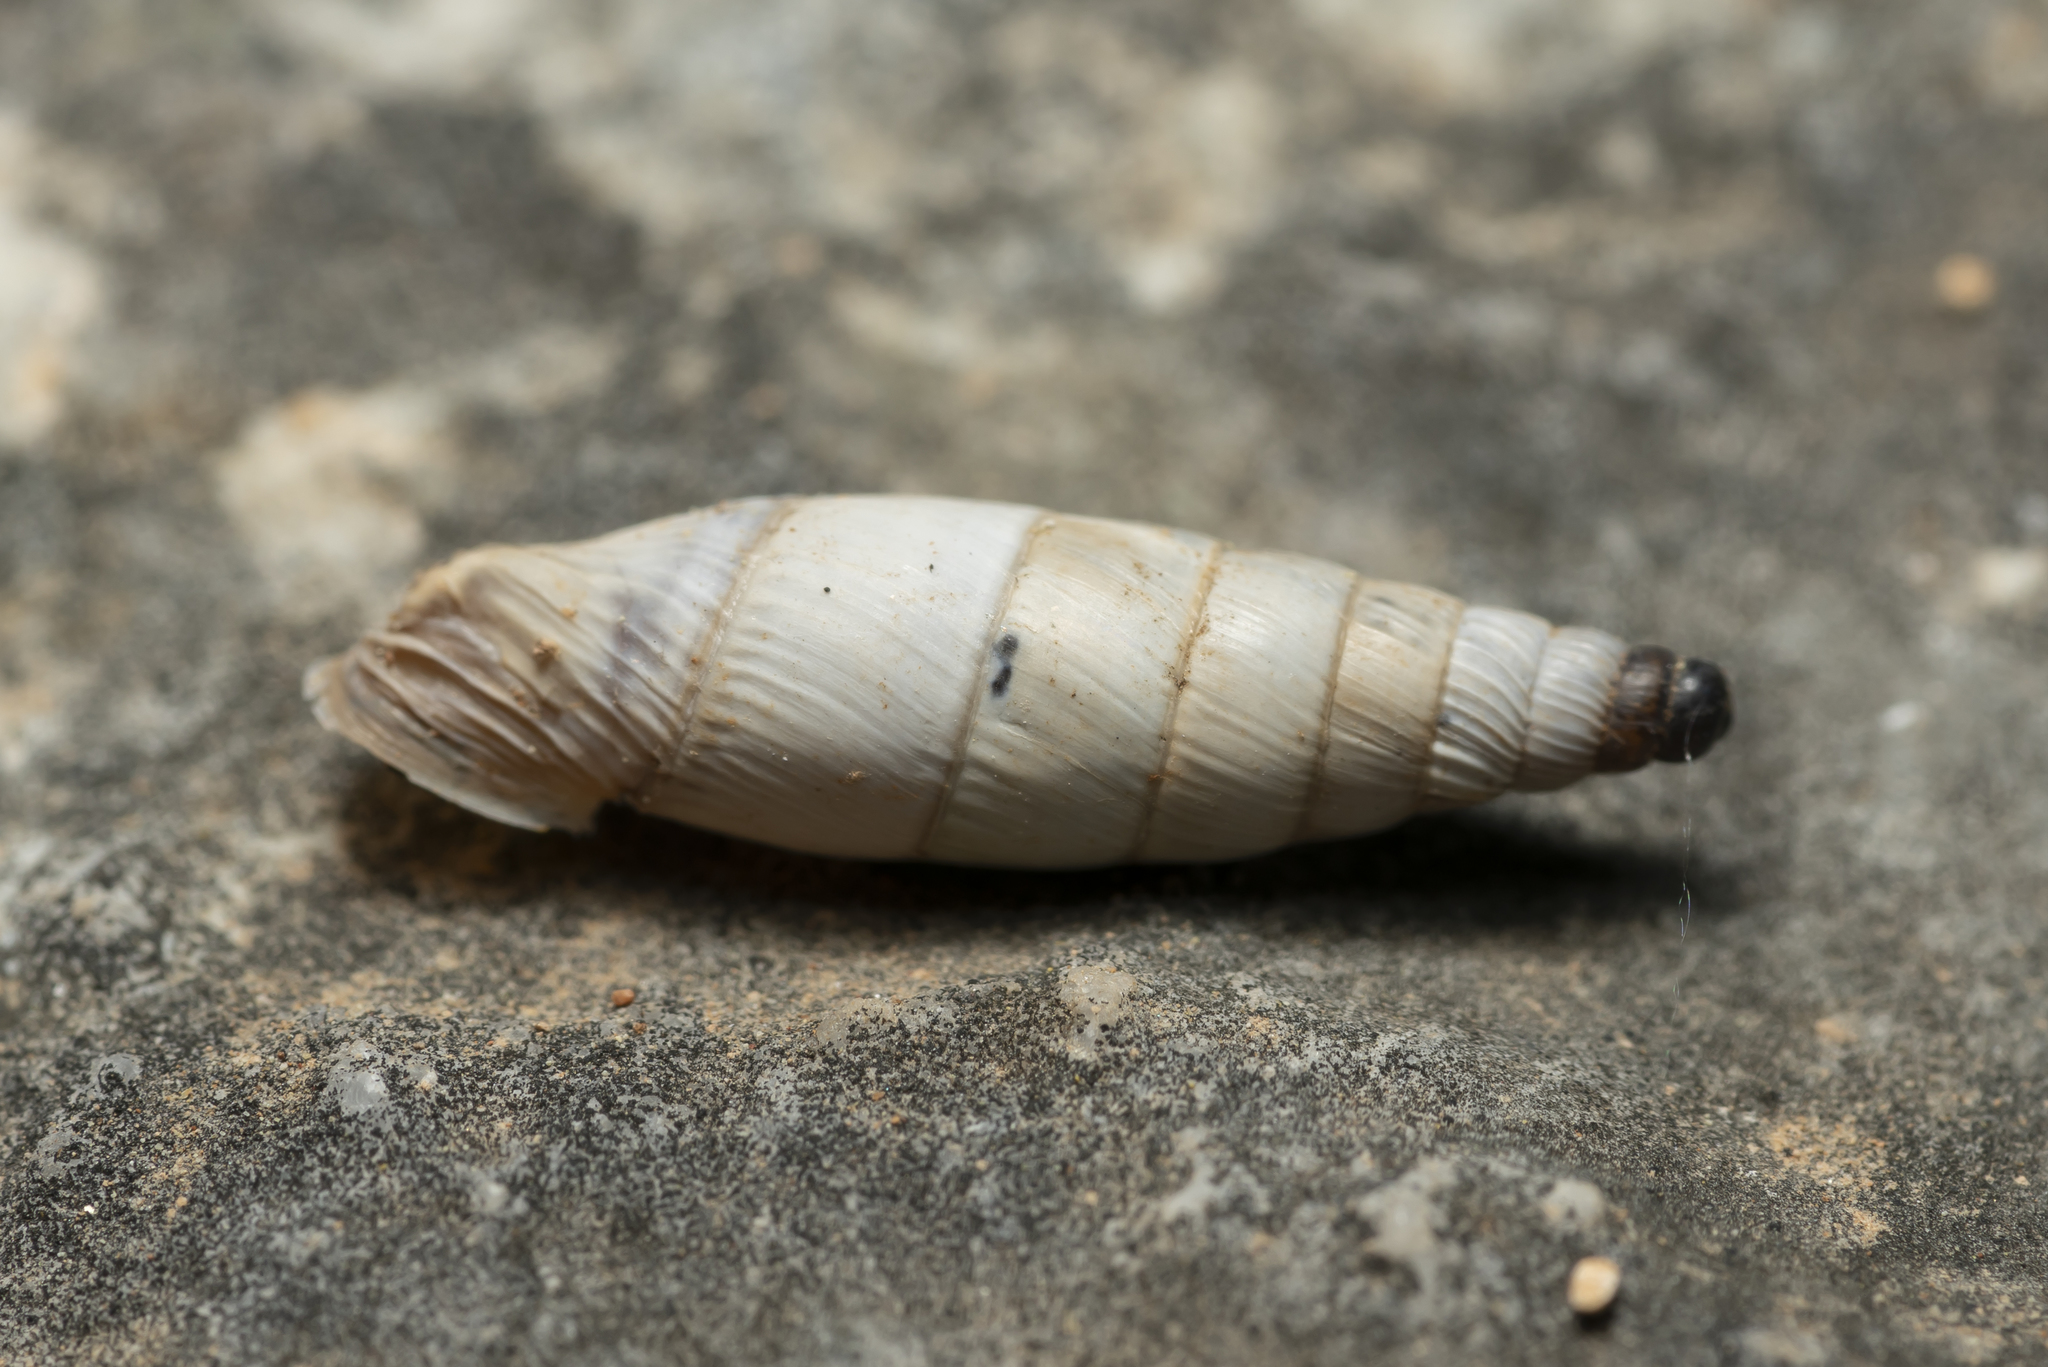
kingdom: Animalia
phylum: Mollusca
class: Gastropoda
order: Stylommatophora
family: Clausiliidae
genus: Albinaria
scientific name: Albinaria brevicollis
